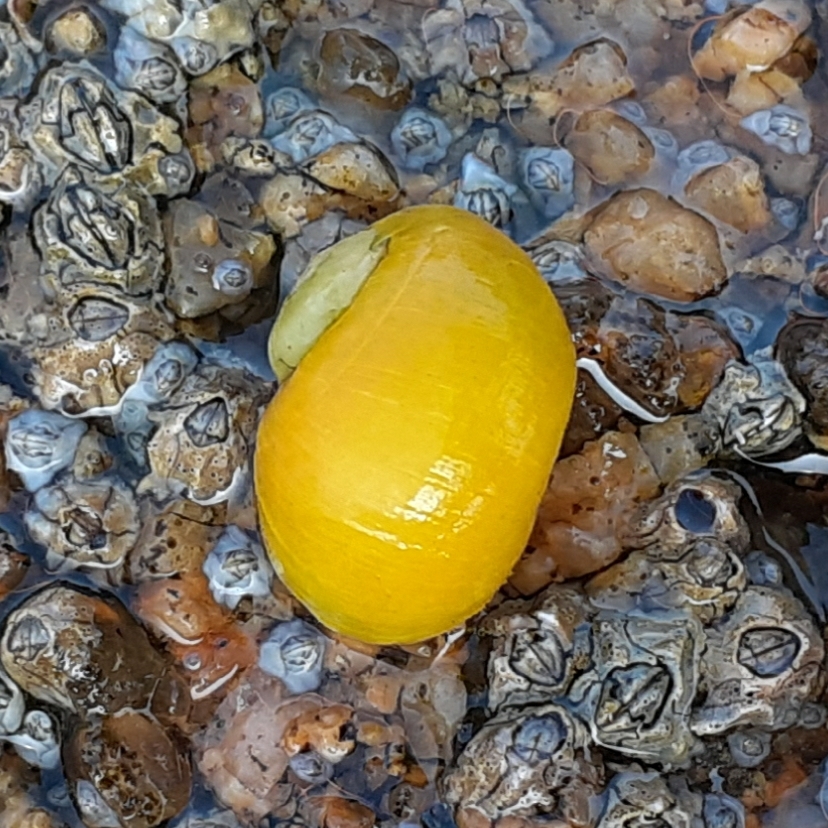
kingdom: Animalia
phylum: Mollusca
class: Gastropoda
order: Littorinimorpha
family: Littorinidae
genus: Littorina
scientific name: Littorina obtusata
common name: Flat periwinkle
